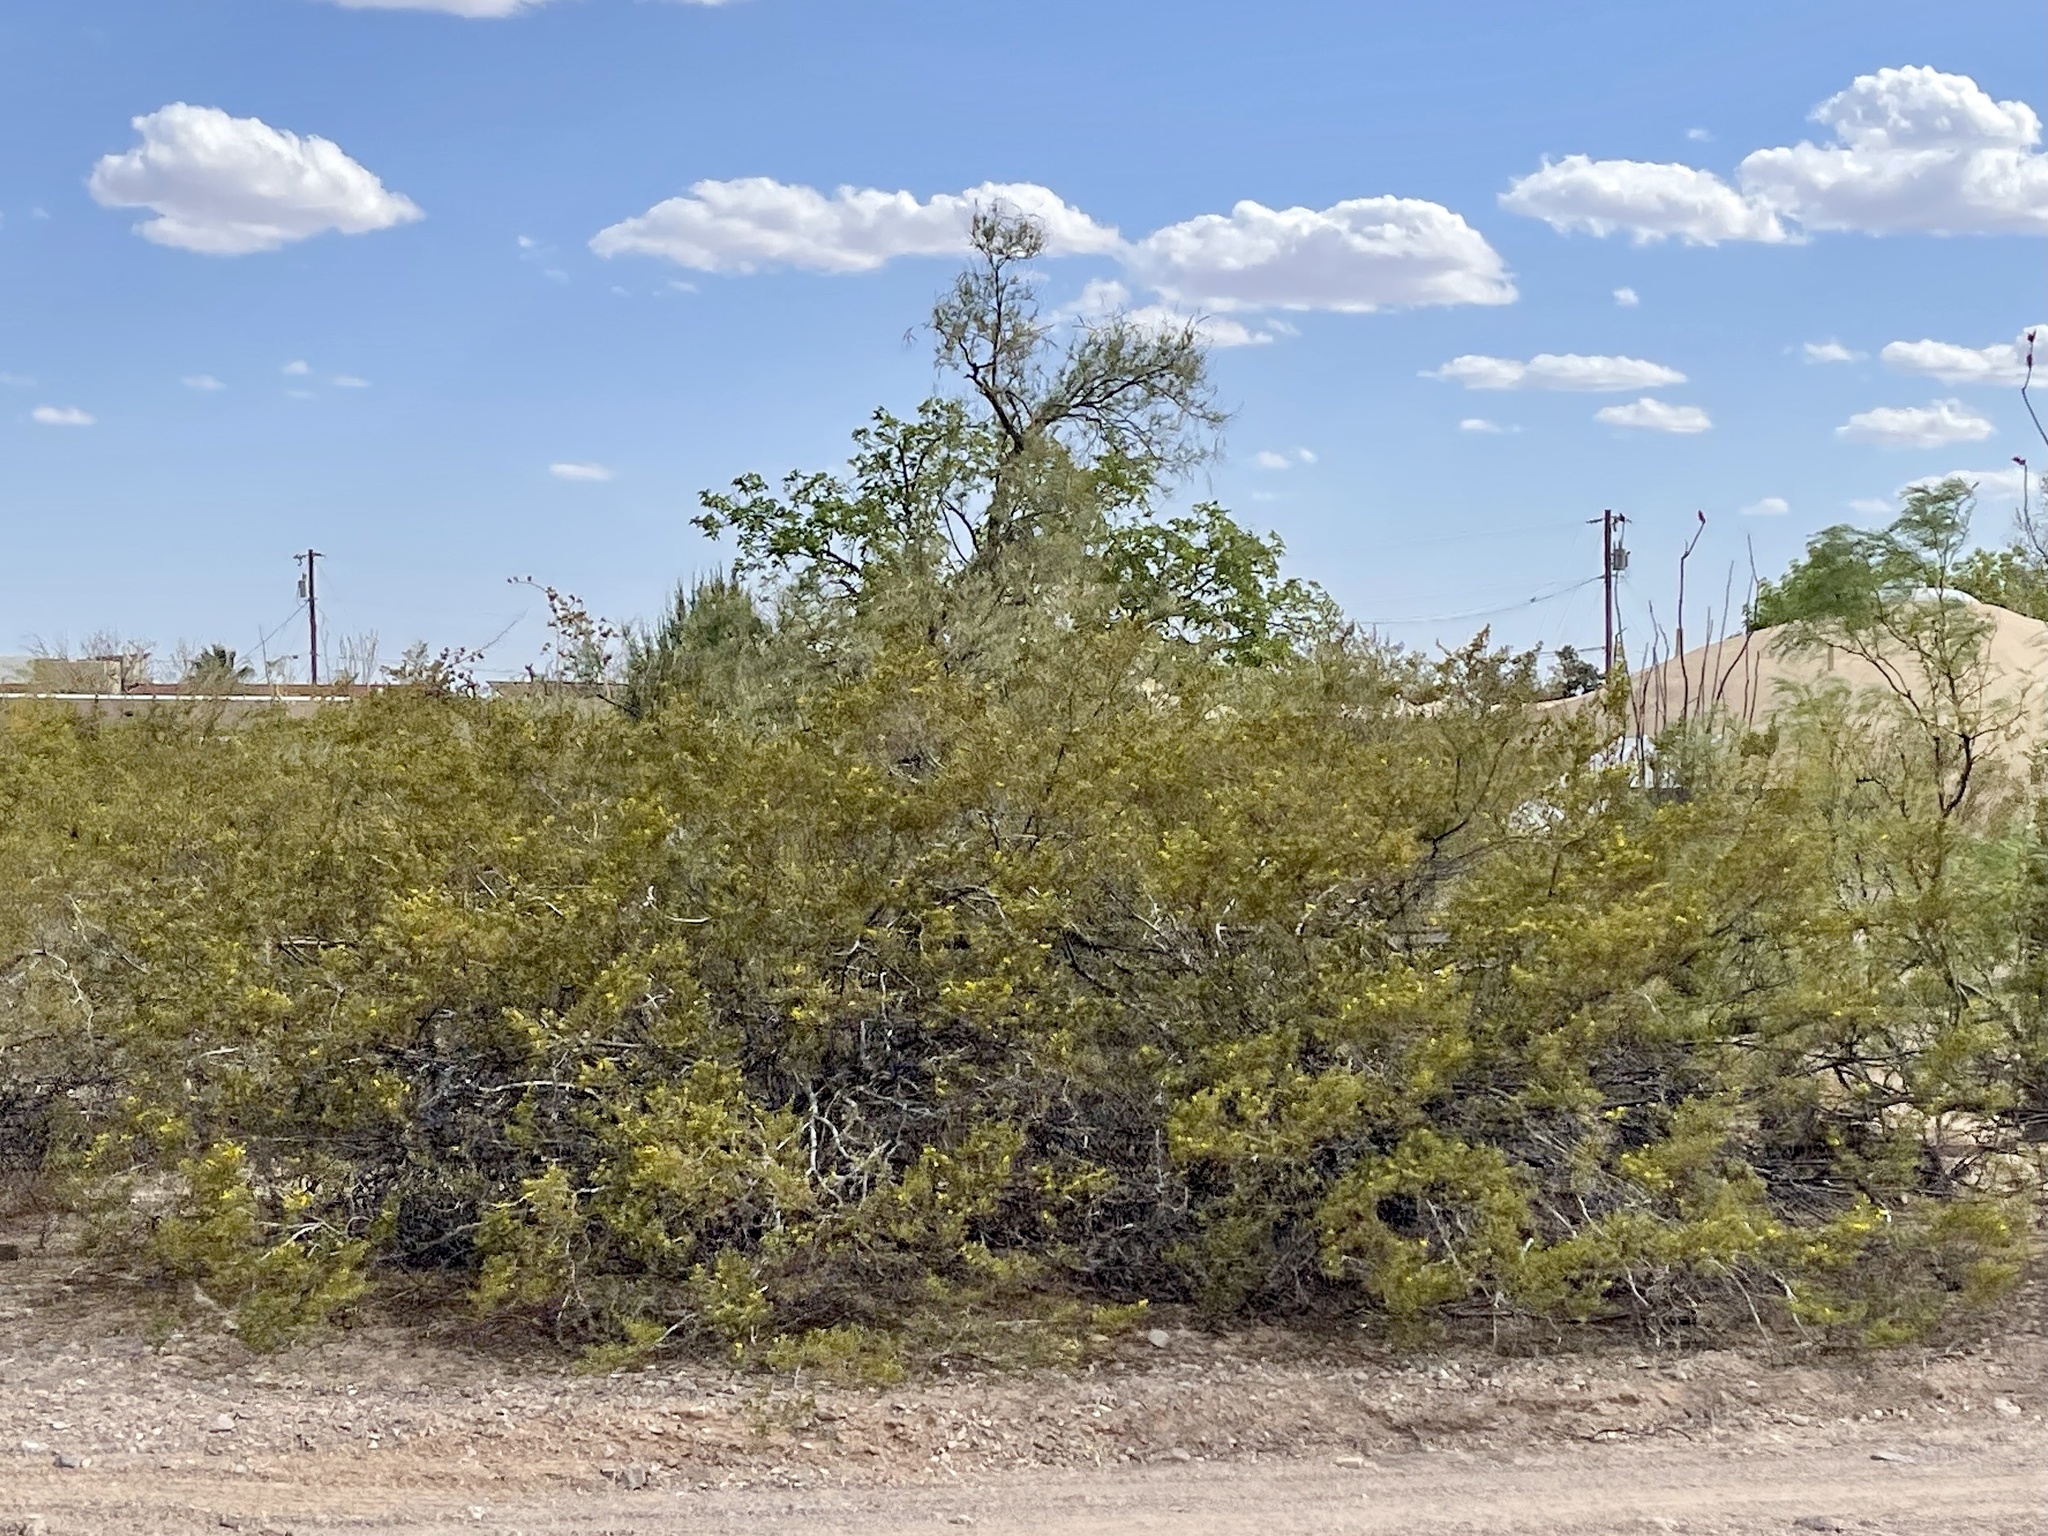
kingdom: Plantae
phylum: Tracheophyta
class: Magnoliopsida
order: Zygophyllales
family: Zygophyllaceae
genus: Larrea
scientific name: Larrea tridentata
